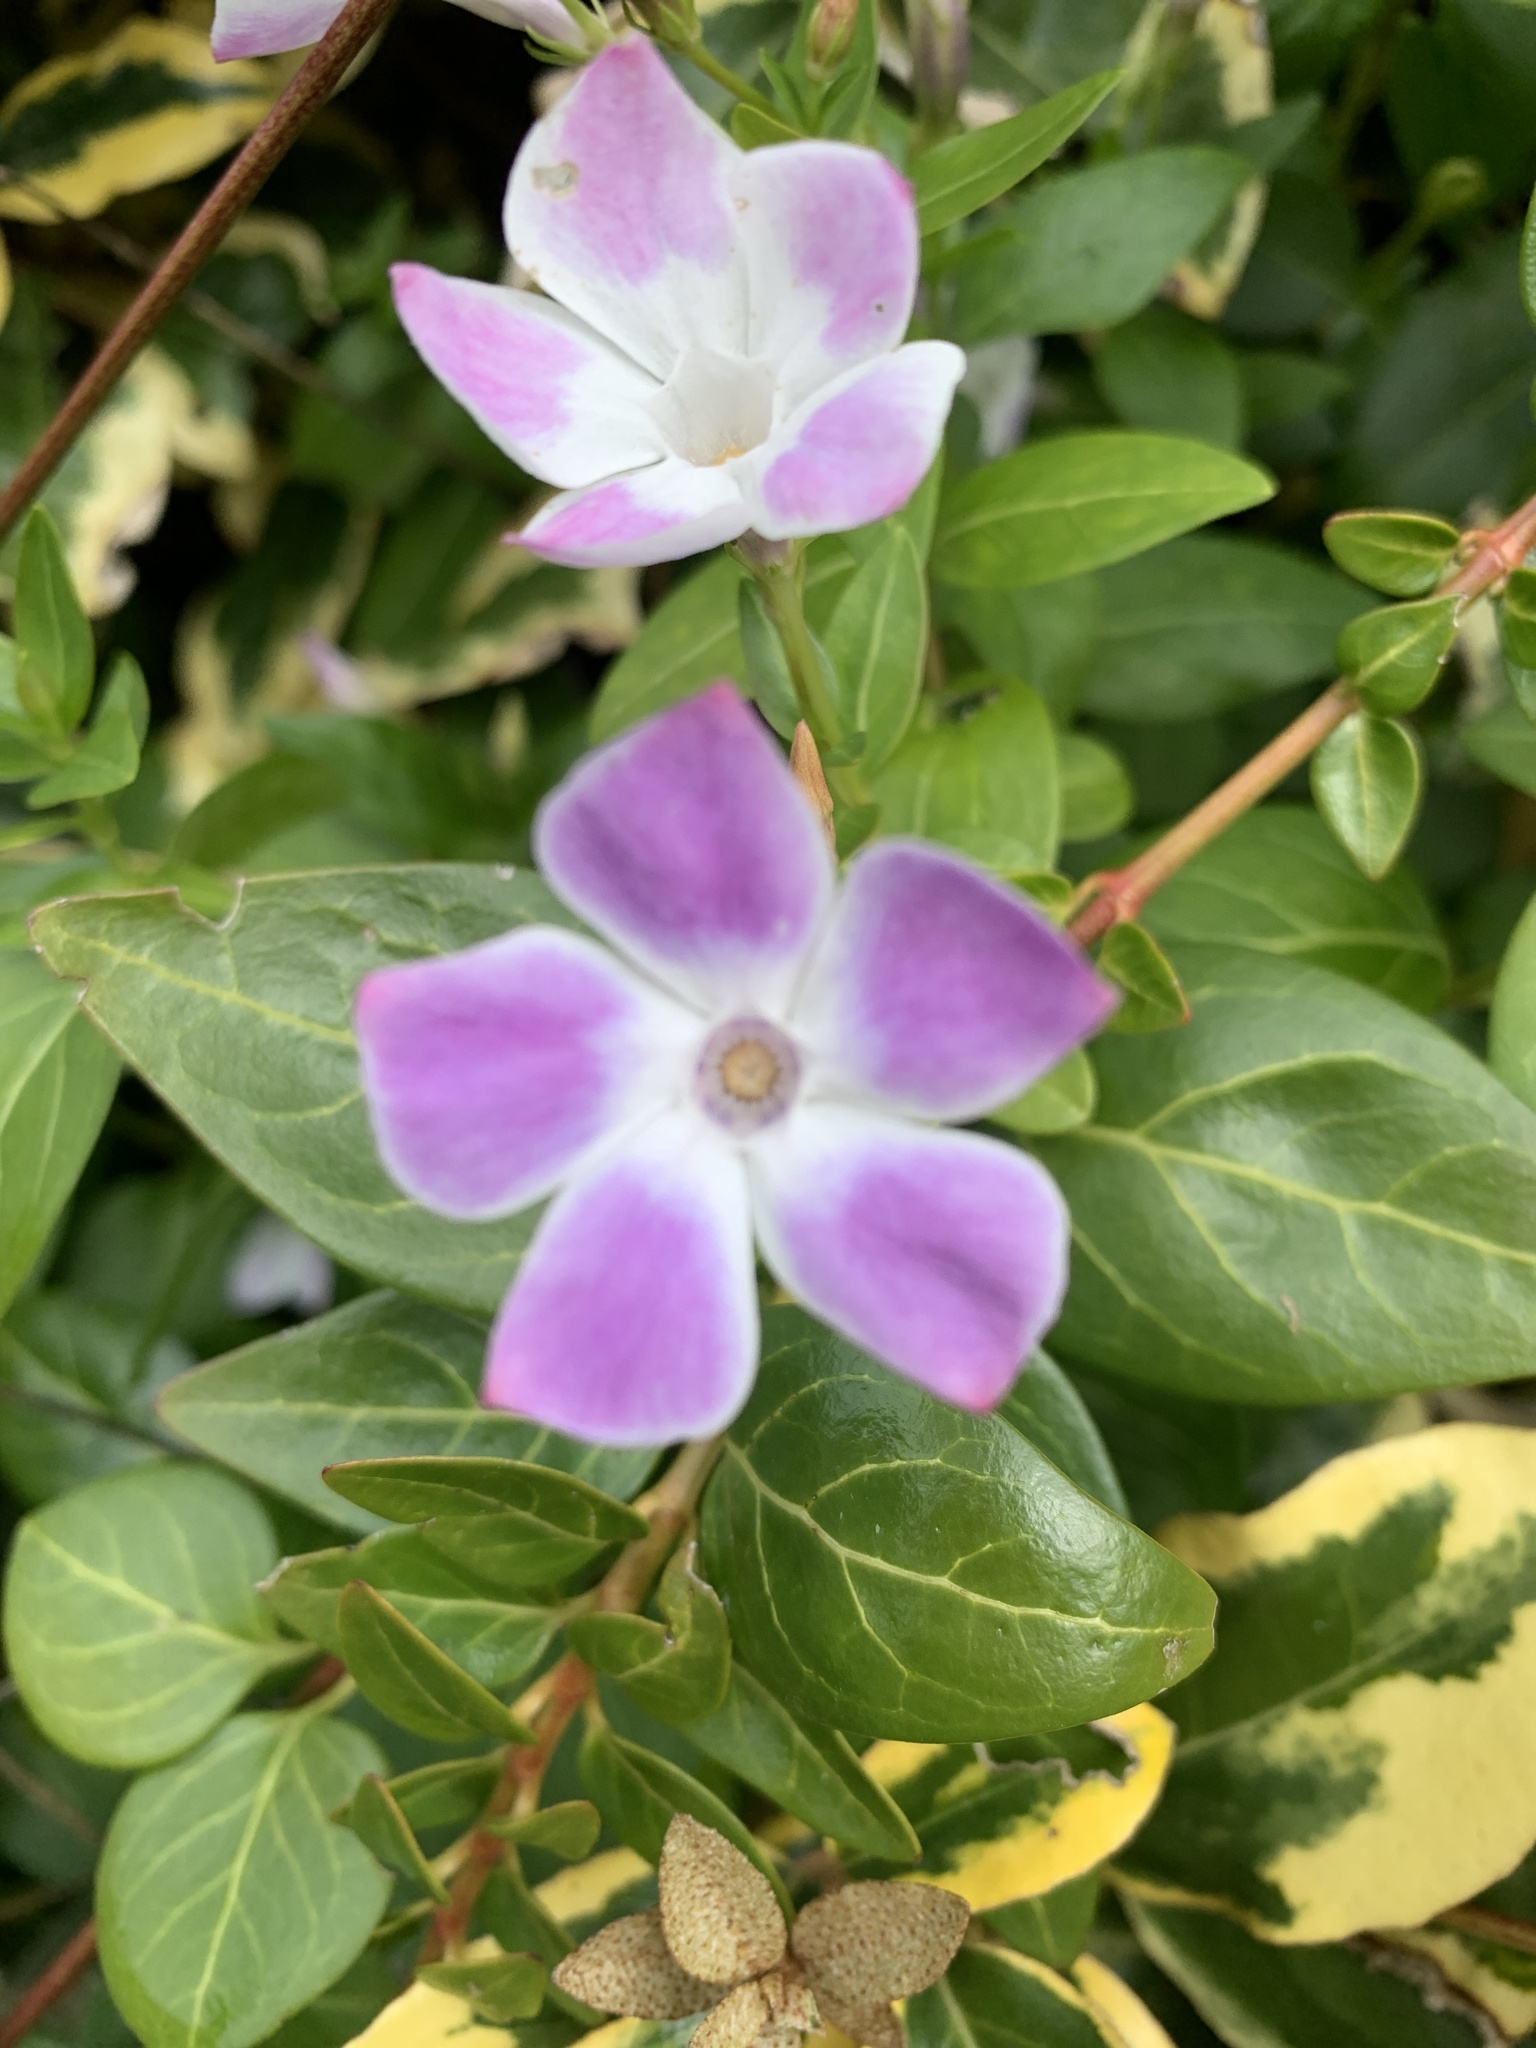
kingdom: Plantae
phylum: Tracheophyta
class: Magnoliopsida
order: Gentianales
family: Apocynaceae
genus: Vinca
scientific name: Vinca difformis
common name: Intermediate periwinkle
